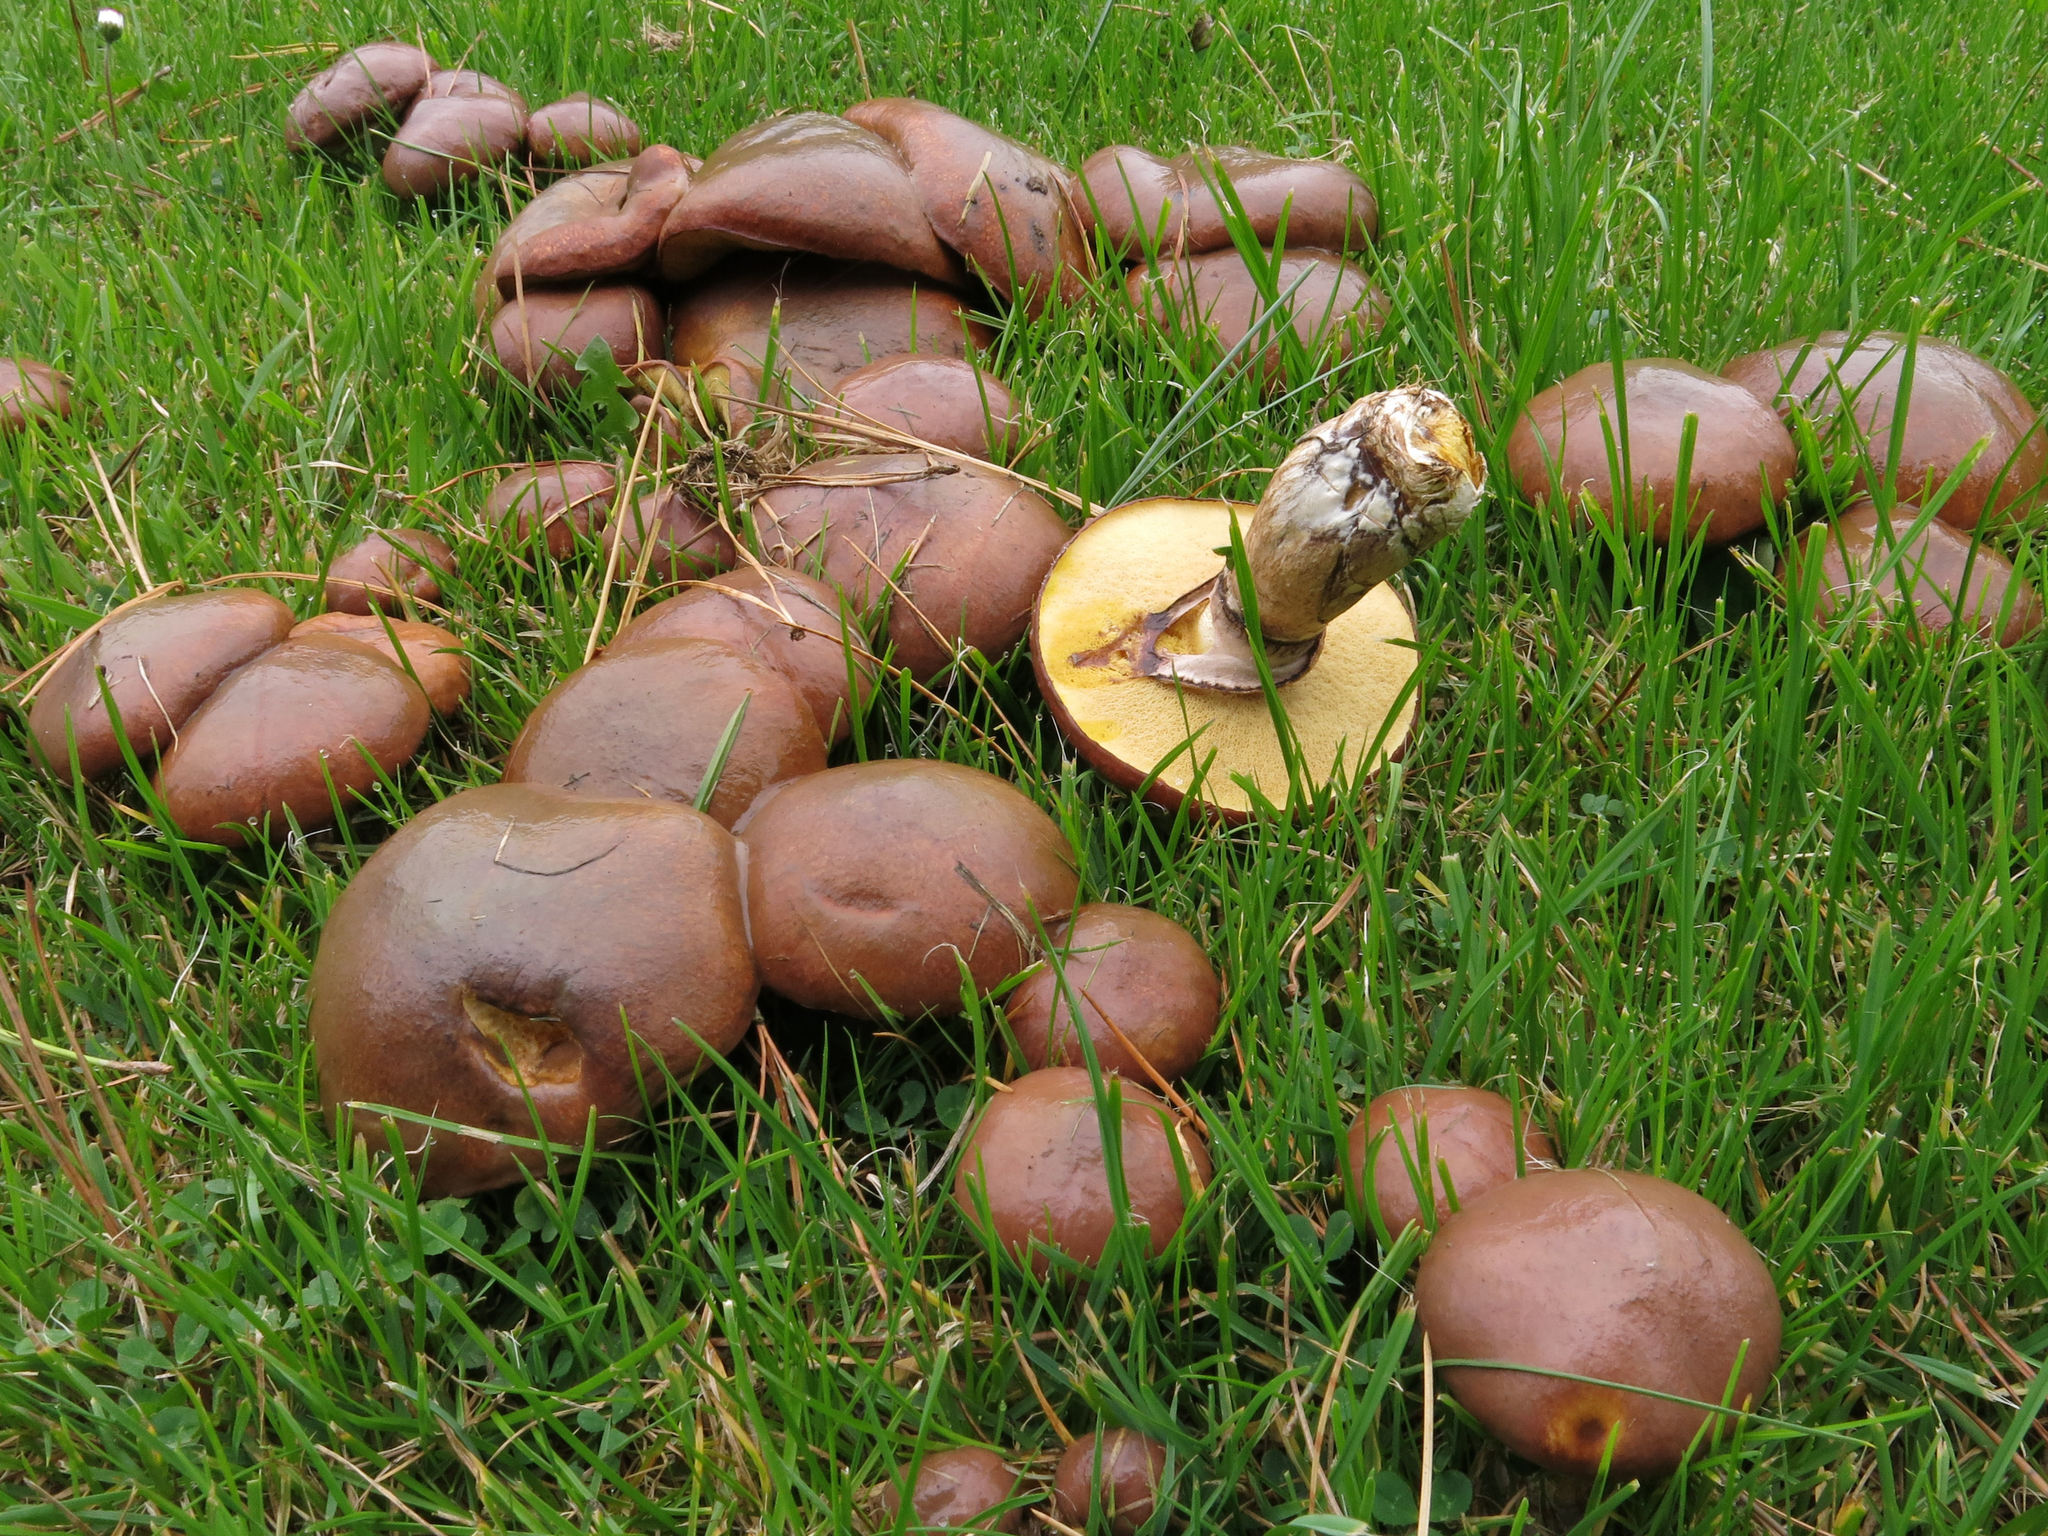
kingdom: Fungi
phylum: Basidiomycota
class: Agaricomycetes
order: Boletales
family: Suillaceae
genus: Suillus
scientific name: Suillus luteus
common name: Slippery jack
